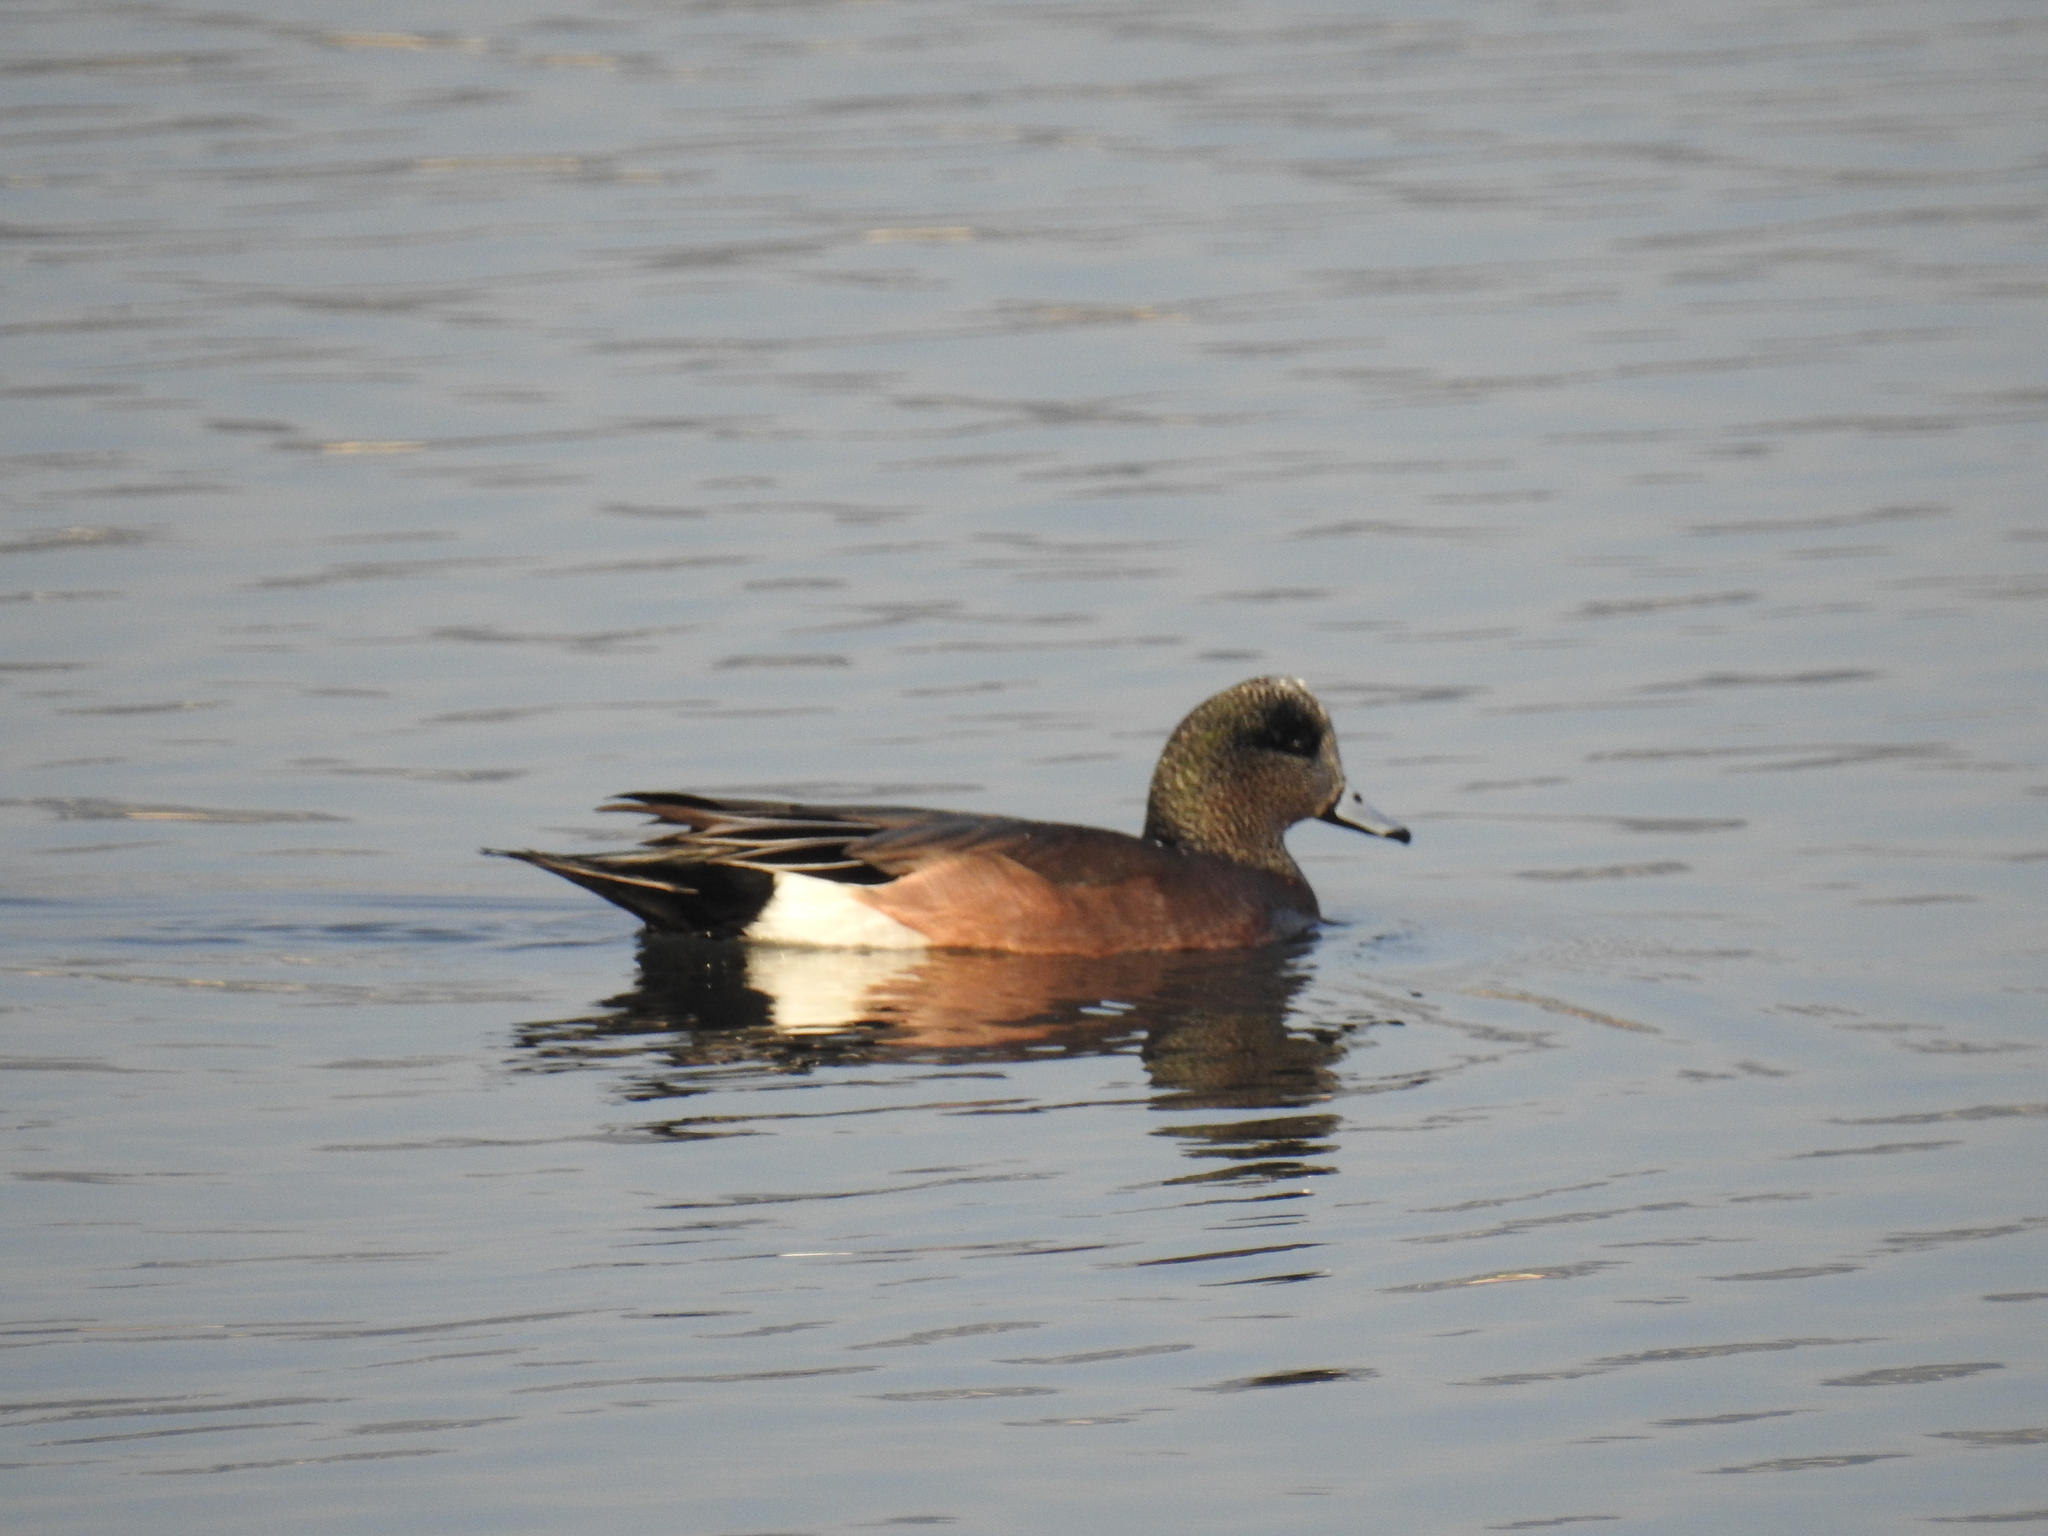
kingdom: Animalia
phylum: Chordata
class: Aves
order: Anseriformes
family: Anatidae
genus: Mareca
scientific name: Mareca americana
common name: American wigeon
